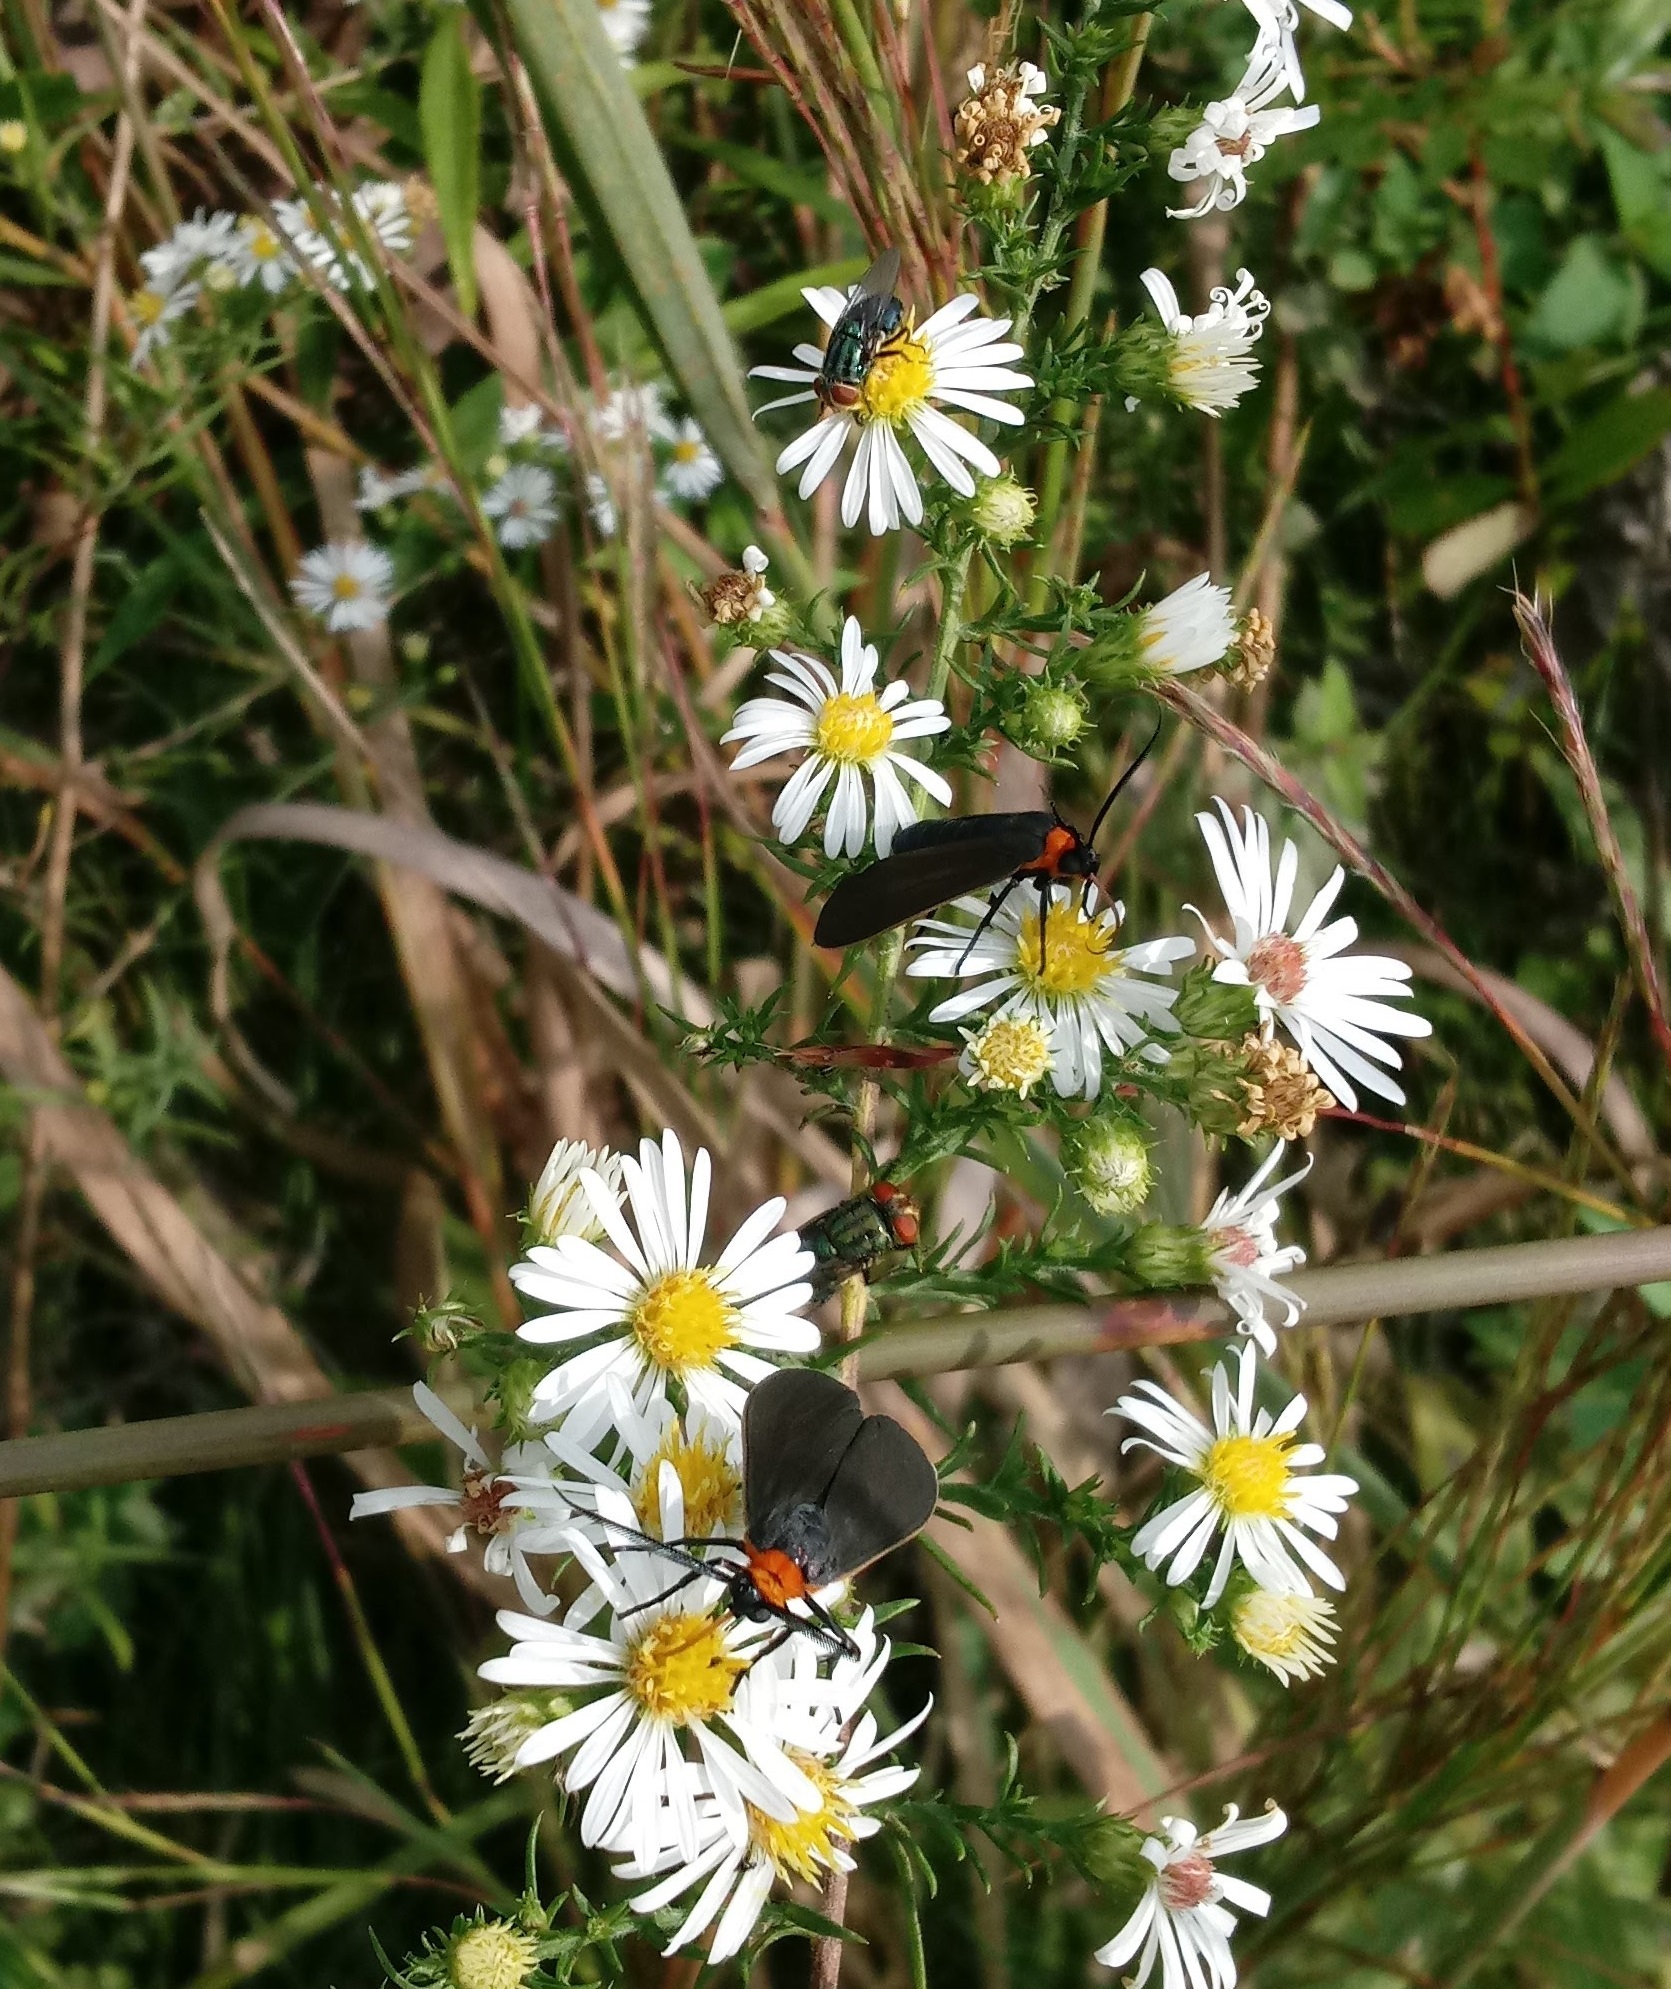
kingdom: Animalia
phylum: Arthropoda
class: Insecta
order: Lepidoptera
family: Erebidae
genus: Cisseps
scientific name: Cisseps fulvicollis
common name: Yellow-collared scape moth
